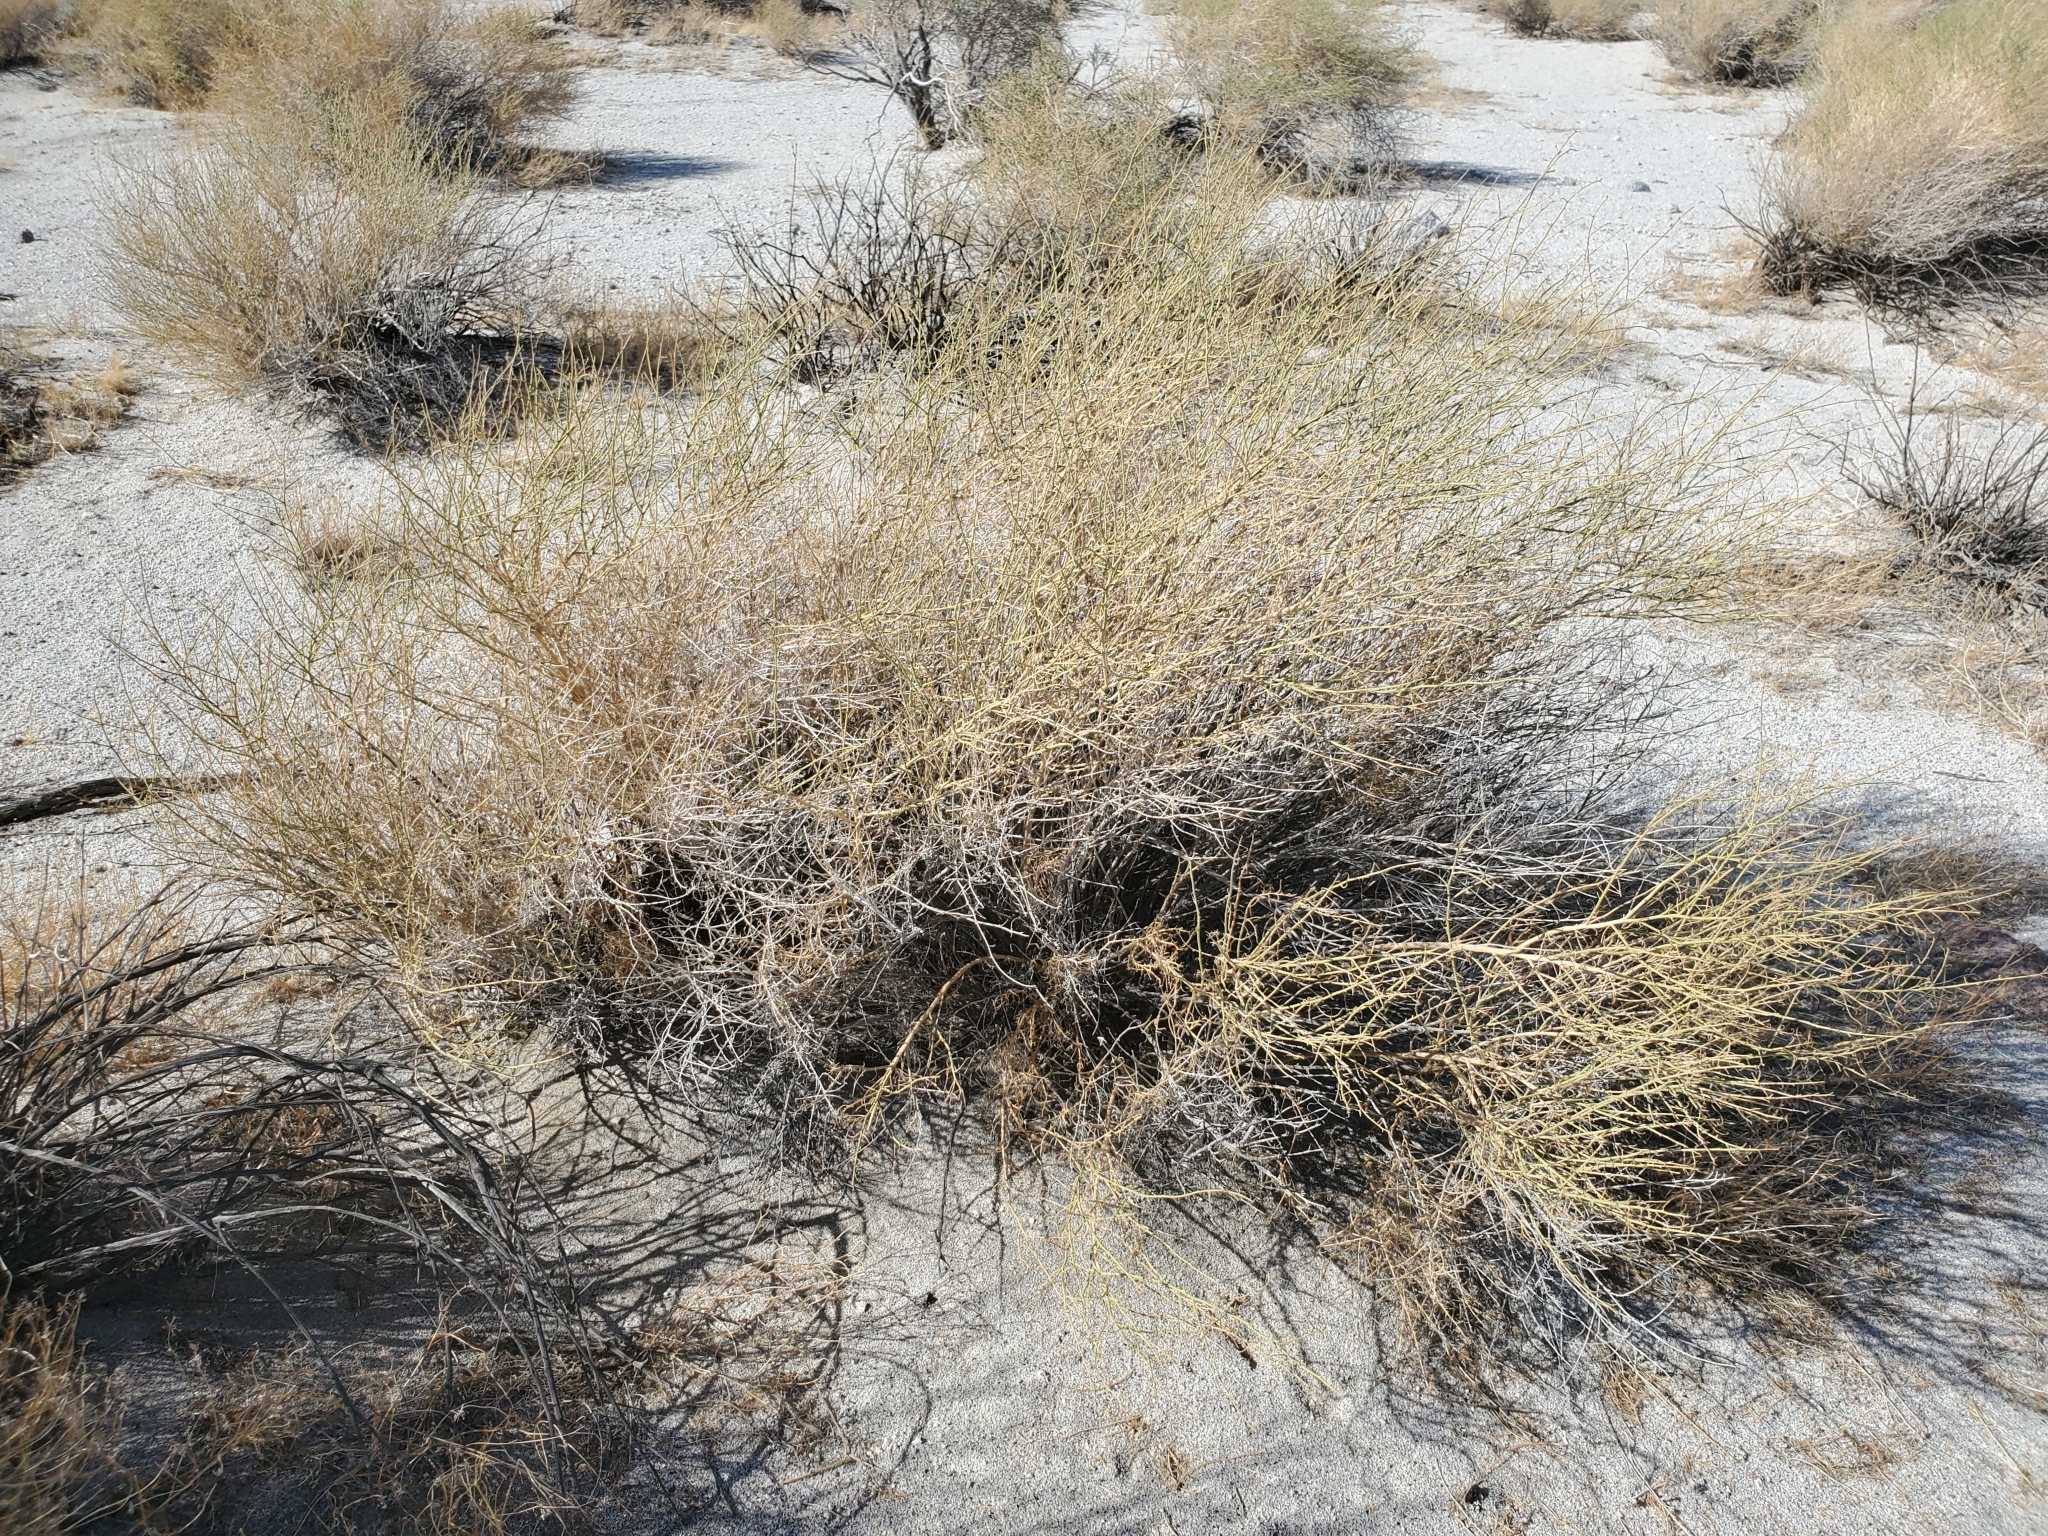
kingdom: Plantae
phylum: Tracheophyta
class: Magnoliopsida
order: Asterales
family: Asteraceae
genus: Ambrosia
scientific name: Ambrosia salsola
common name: Burrobrush
